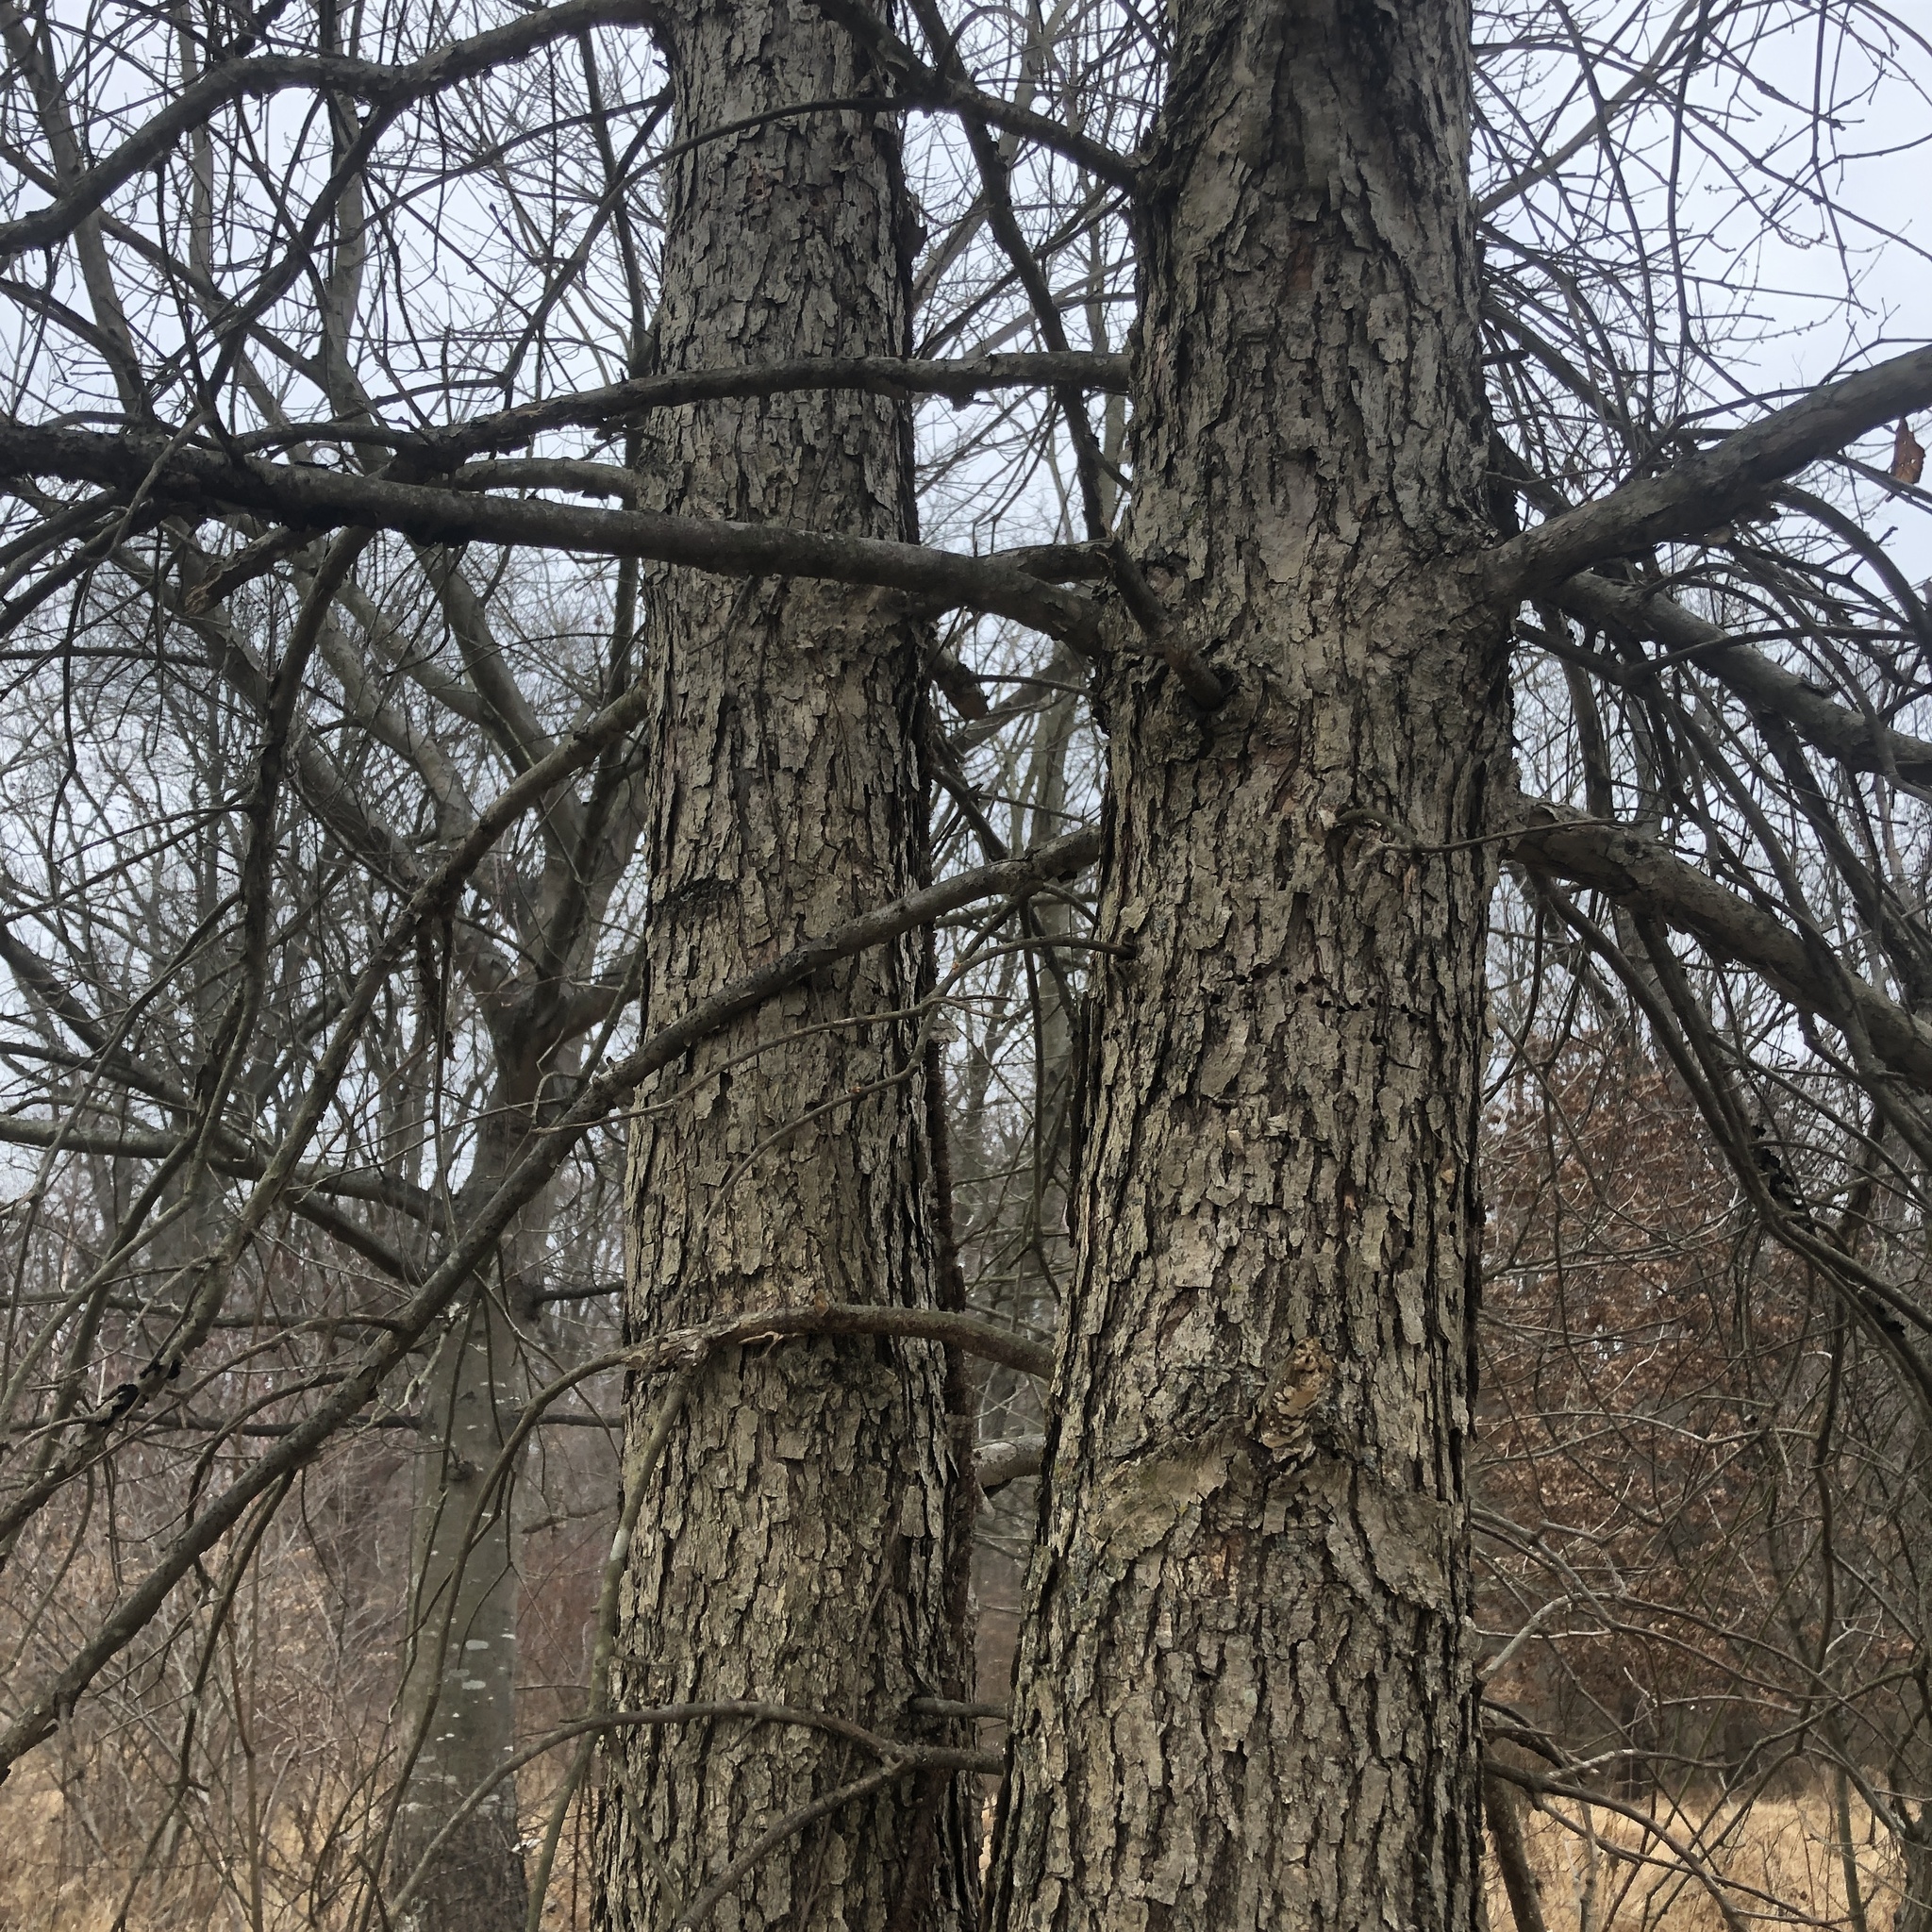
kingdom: Plantae
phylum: Tracheophyta
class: Magnoliopsida
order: Fagales
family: Fagaceae
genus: Quercus
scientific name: Quercus bicolor
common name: Swamp white oak
